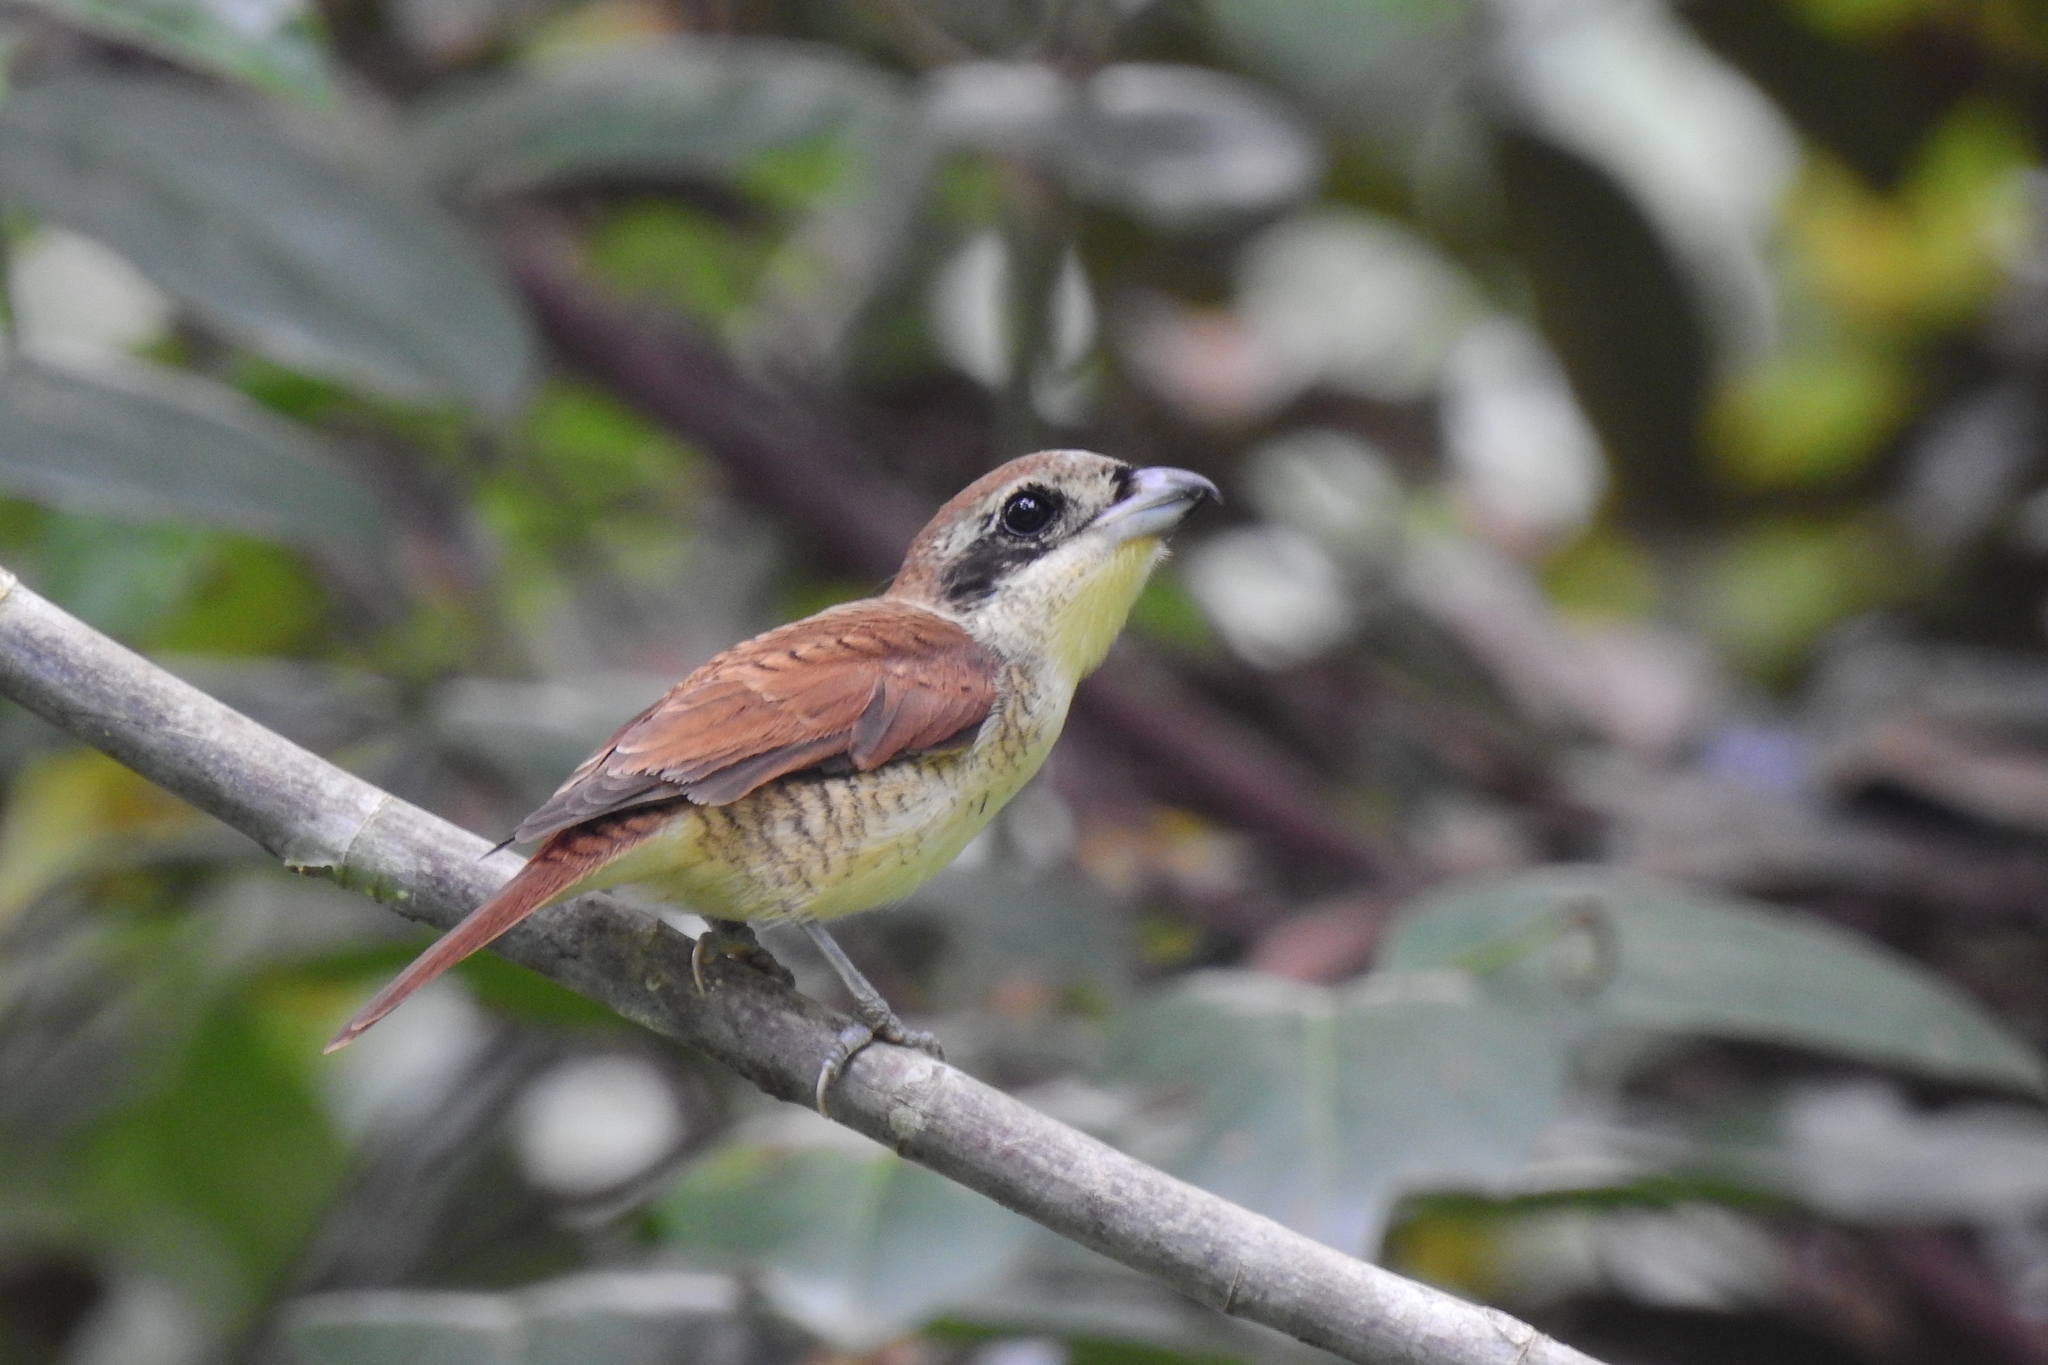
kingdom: Animalia
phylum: Chordata
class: Aves
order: Passeriformes
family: Laniidae
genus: Lanius
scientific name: Lanius tigrinus
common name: Tiger shrike
